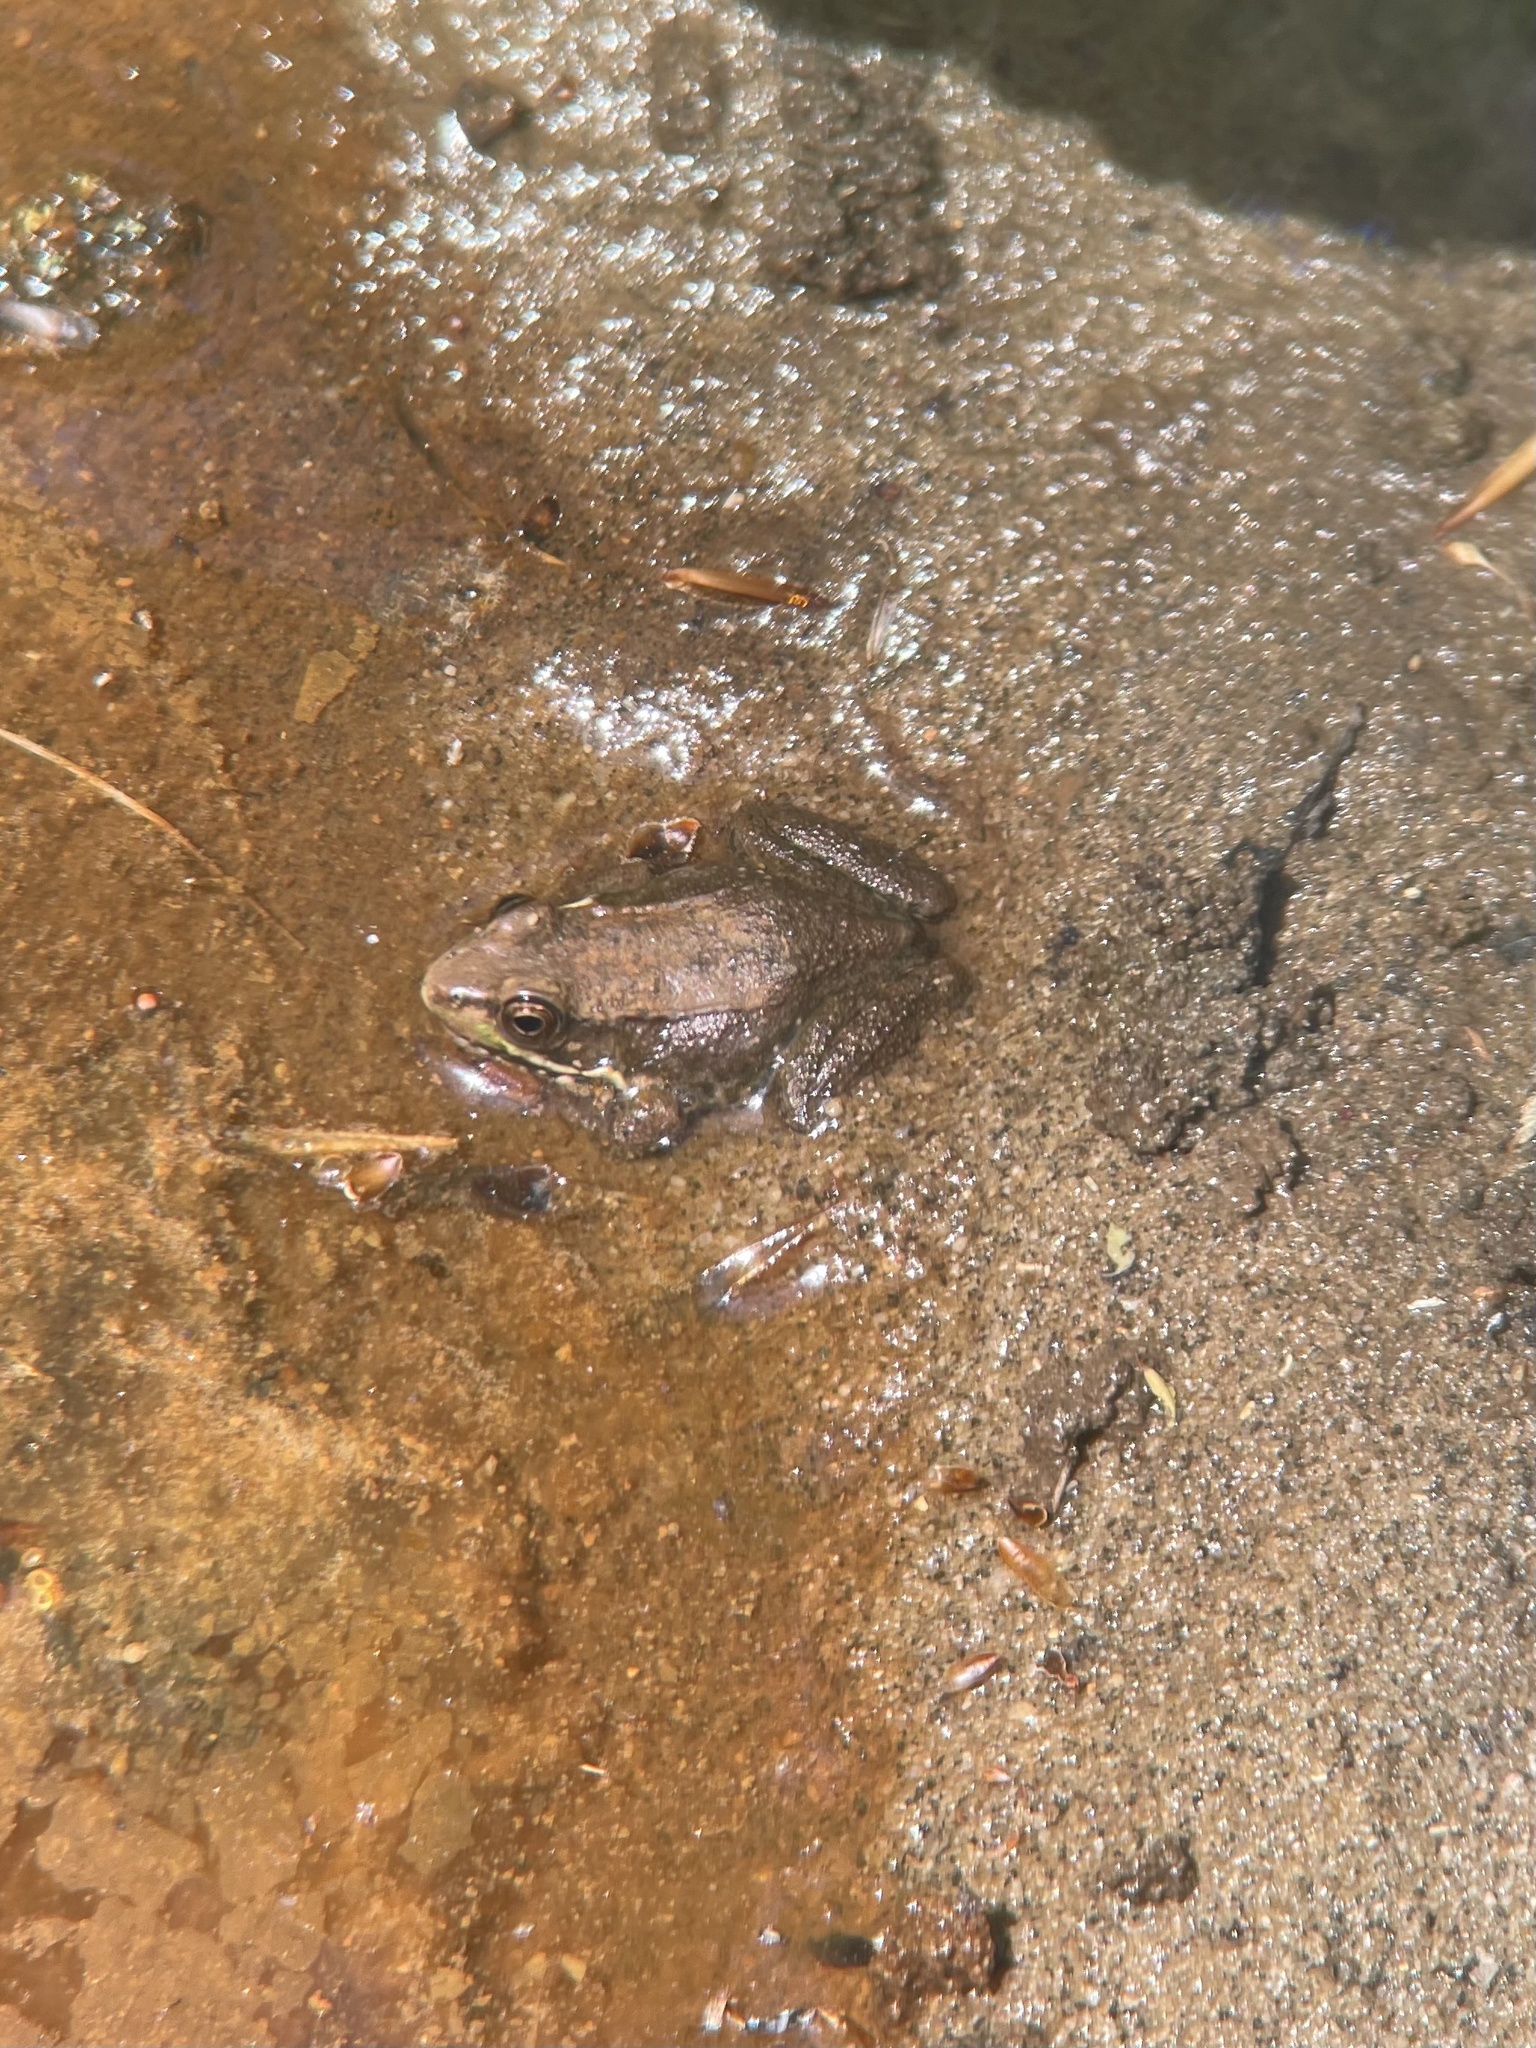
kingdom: Animalia
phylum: Chordata
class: Amphibia
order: Anura
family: Ranidae
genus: Lithobates
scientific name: Lithobates clamitans
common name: Green frog
